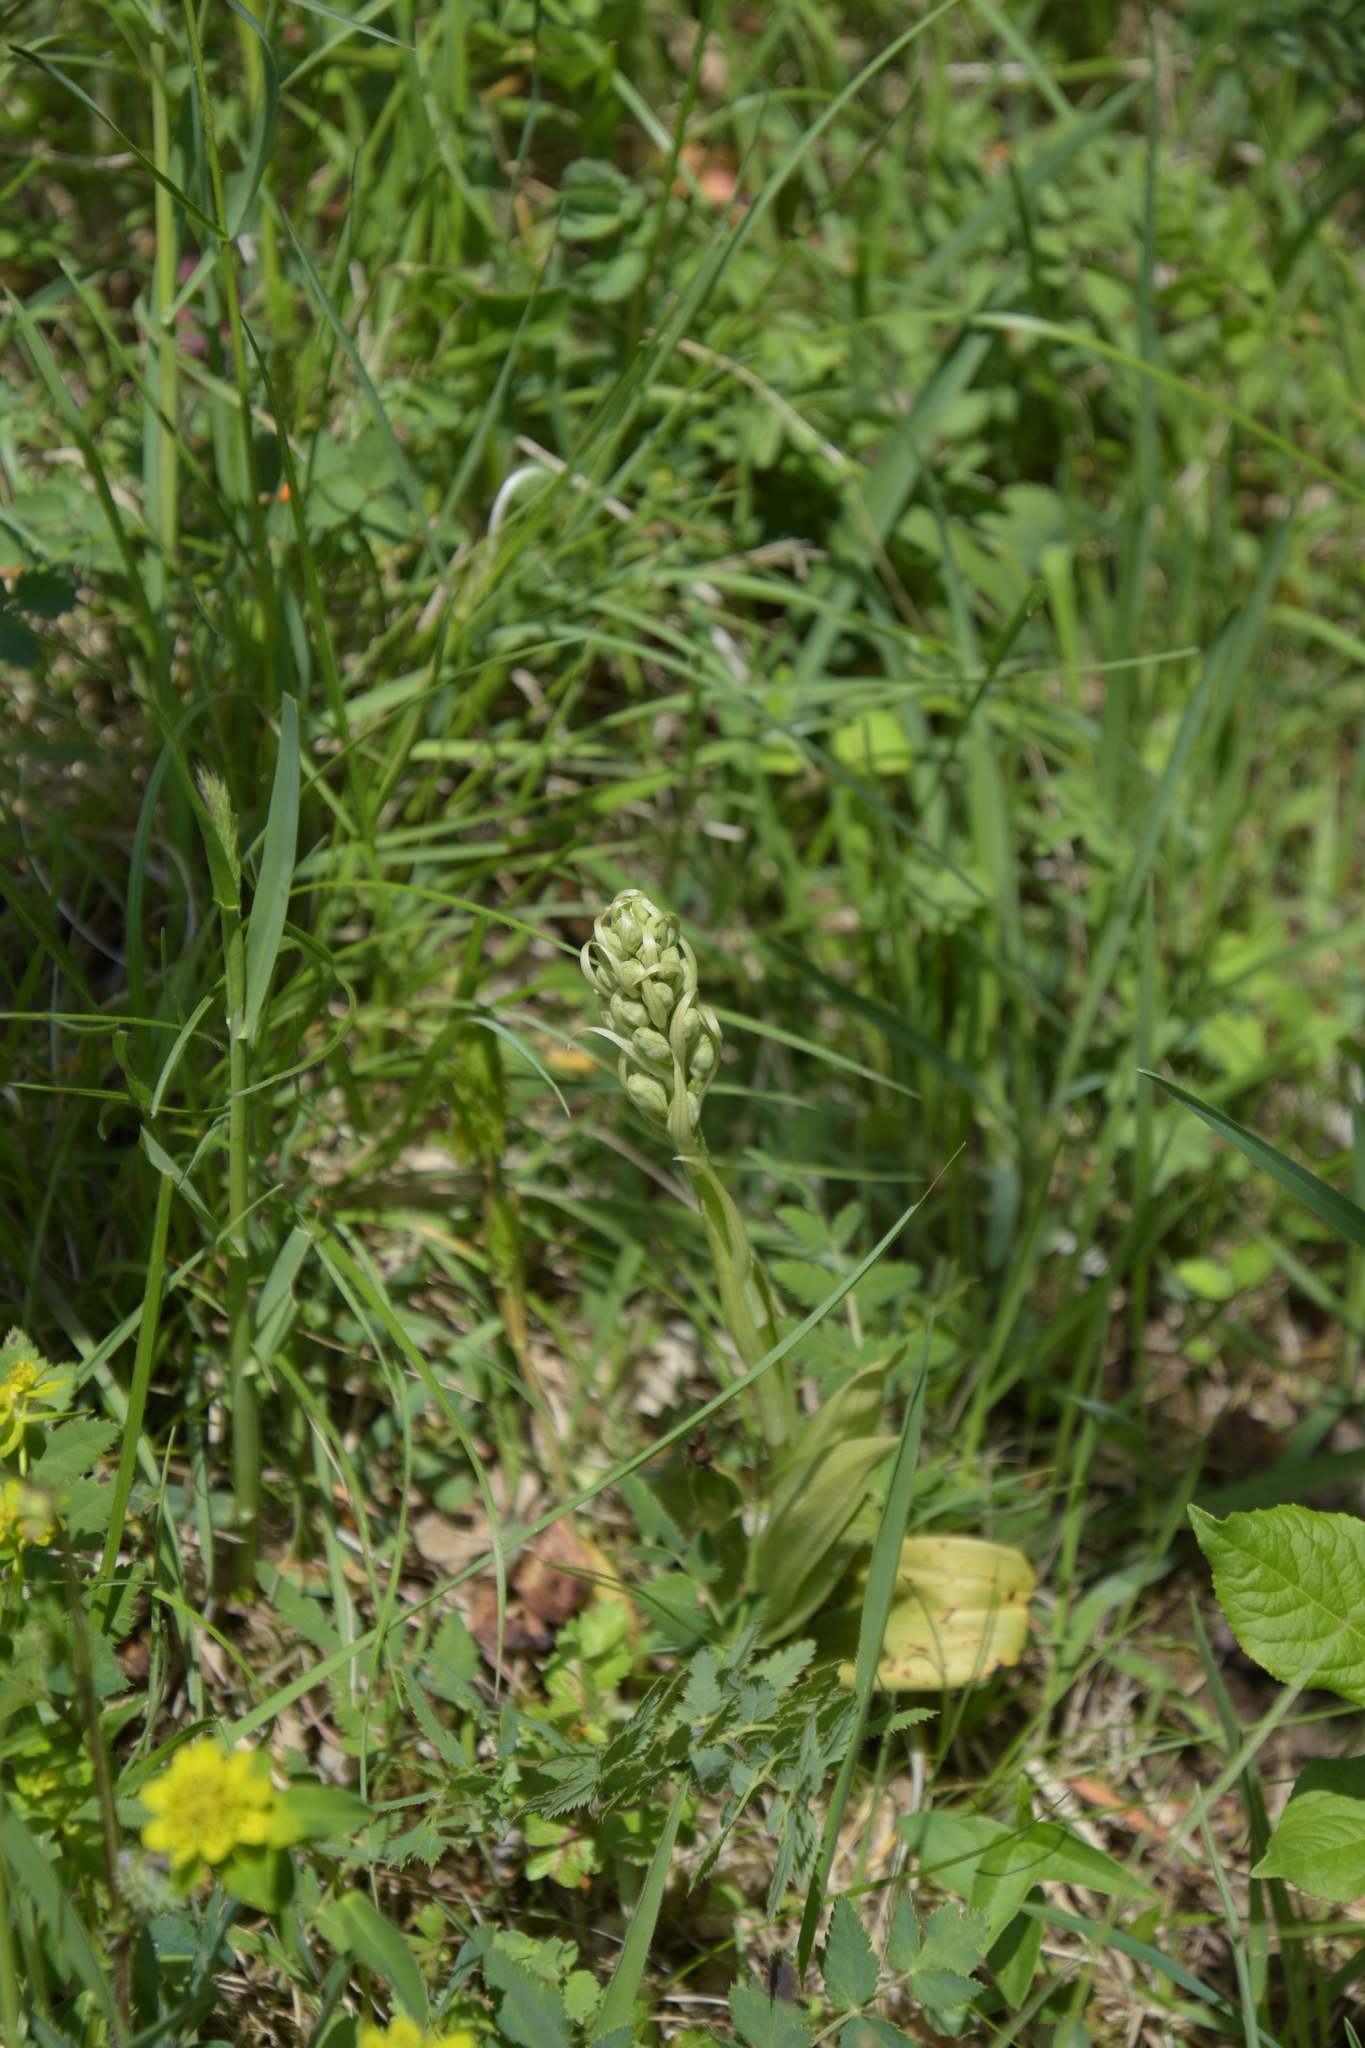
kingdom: Plantae
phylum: Tracheophyta
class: Liliopsida
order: Asparagales
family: Orchidaceae
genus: Himantoglossum
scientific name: Himantoglossum hircinum
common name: Lizard orchid
